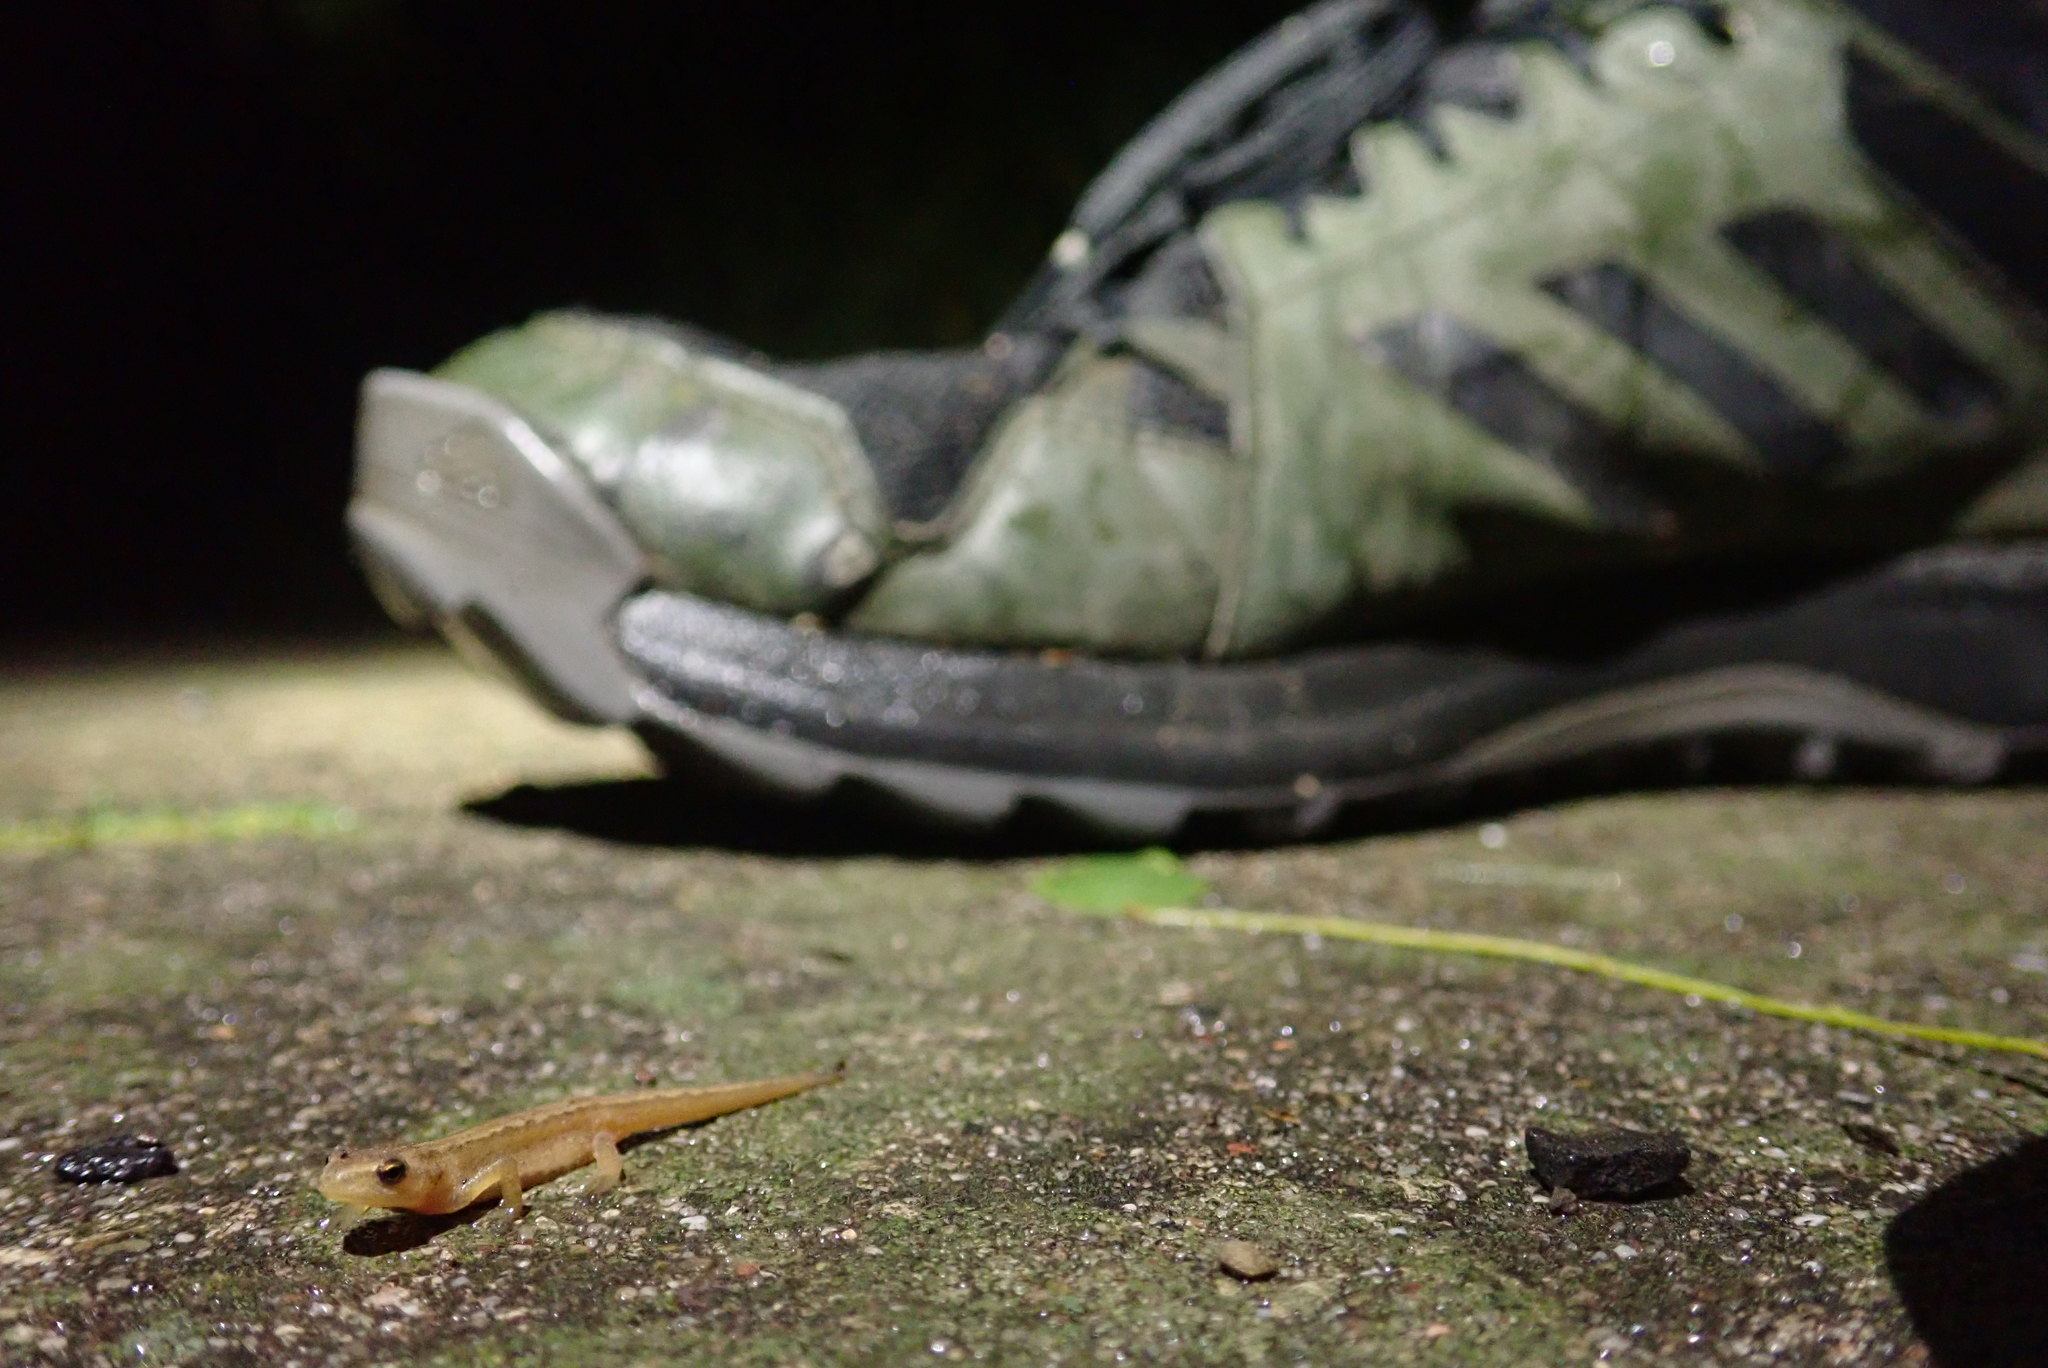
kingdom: Animalia
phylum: Chordata
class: Amphibia
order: Caudata
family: Salamandridae
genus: Lissotriton
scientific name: Lissotriton
